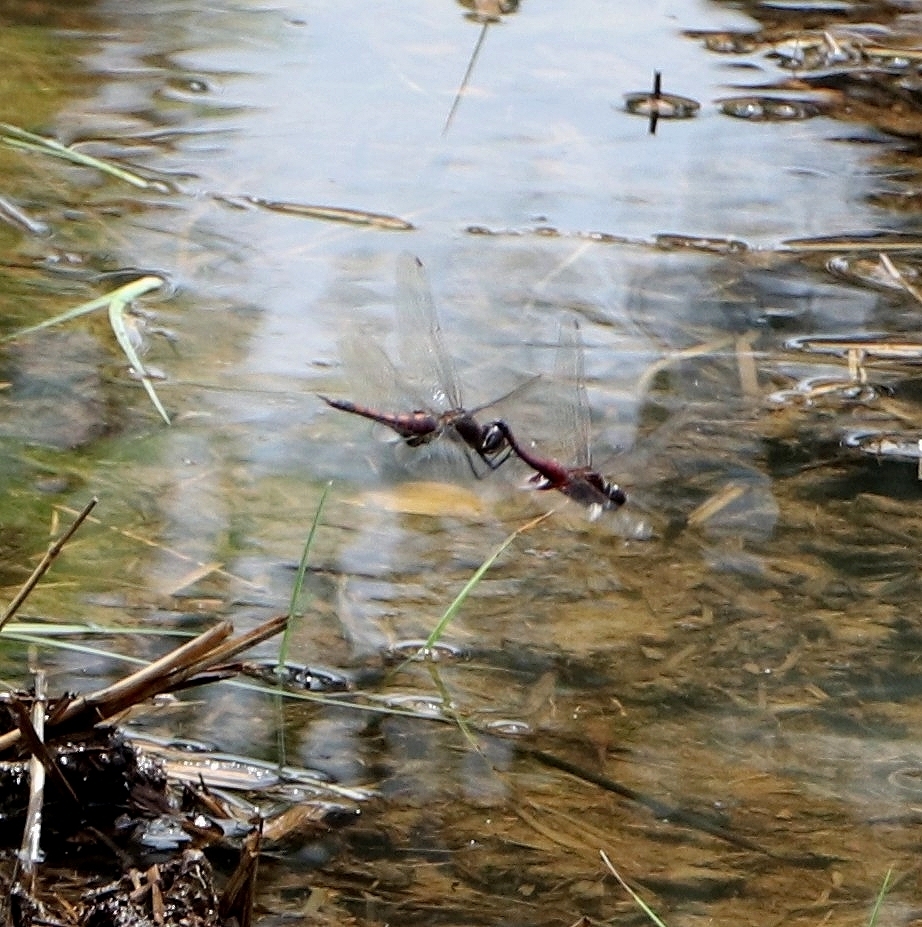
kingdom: Animalia
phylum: Arthropoda
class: Insecta
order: Odonata
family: Libellulidae
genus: Tramea
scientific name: Tramea limbata
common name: Ferruginous glider
